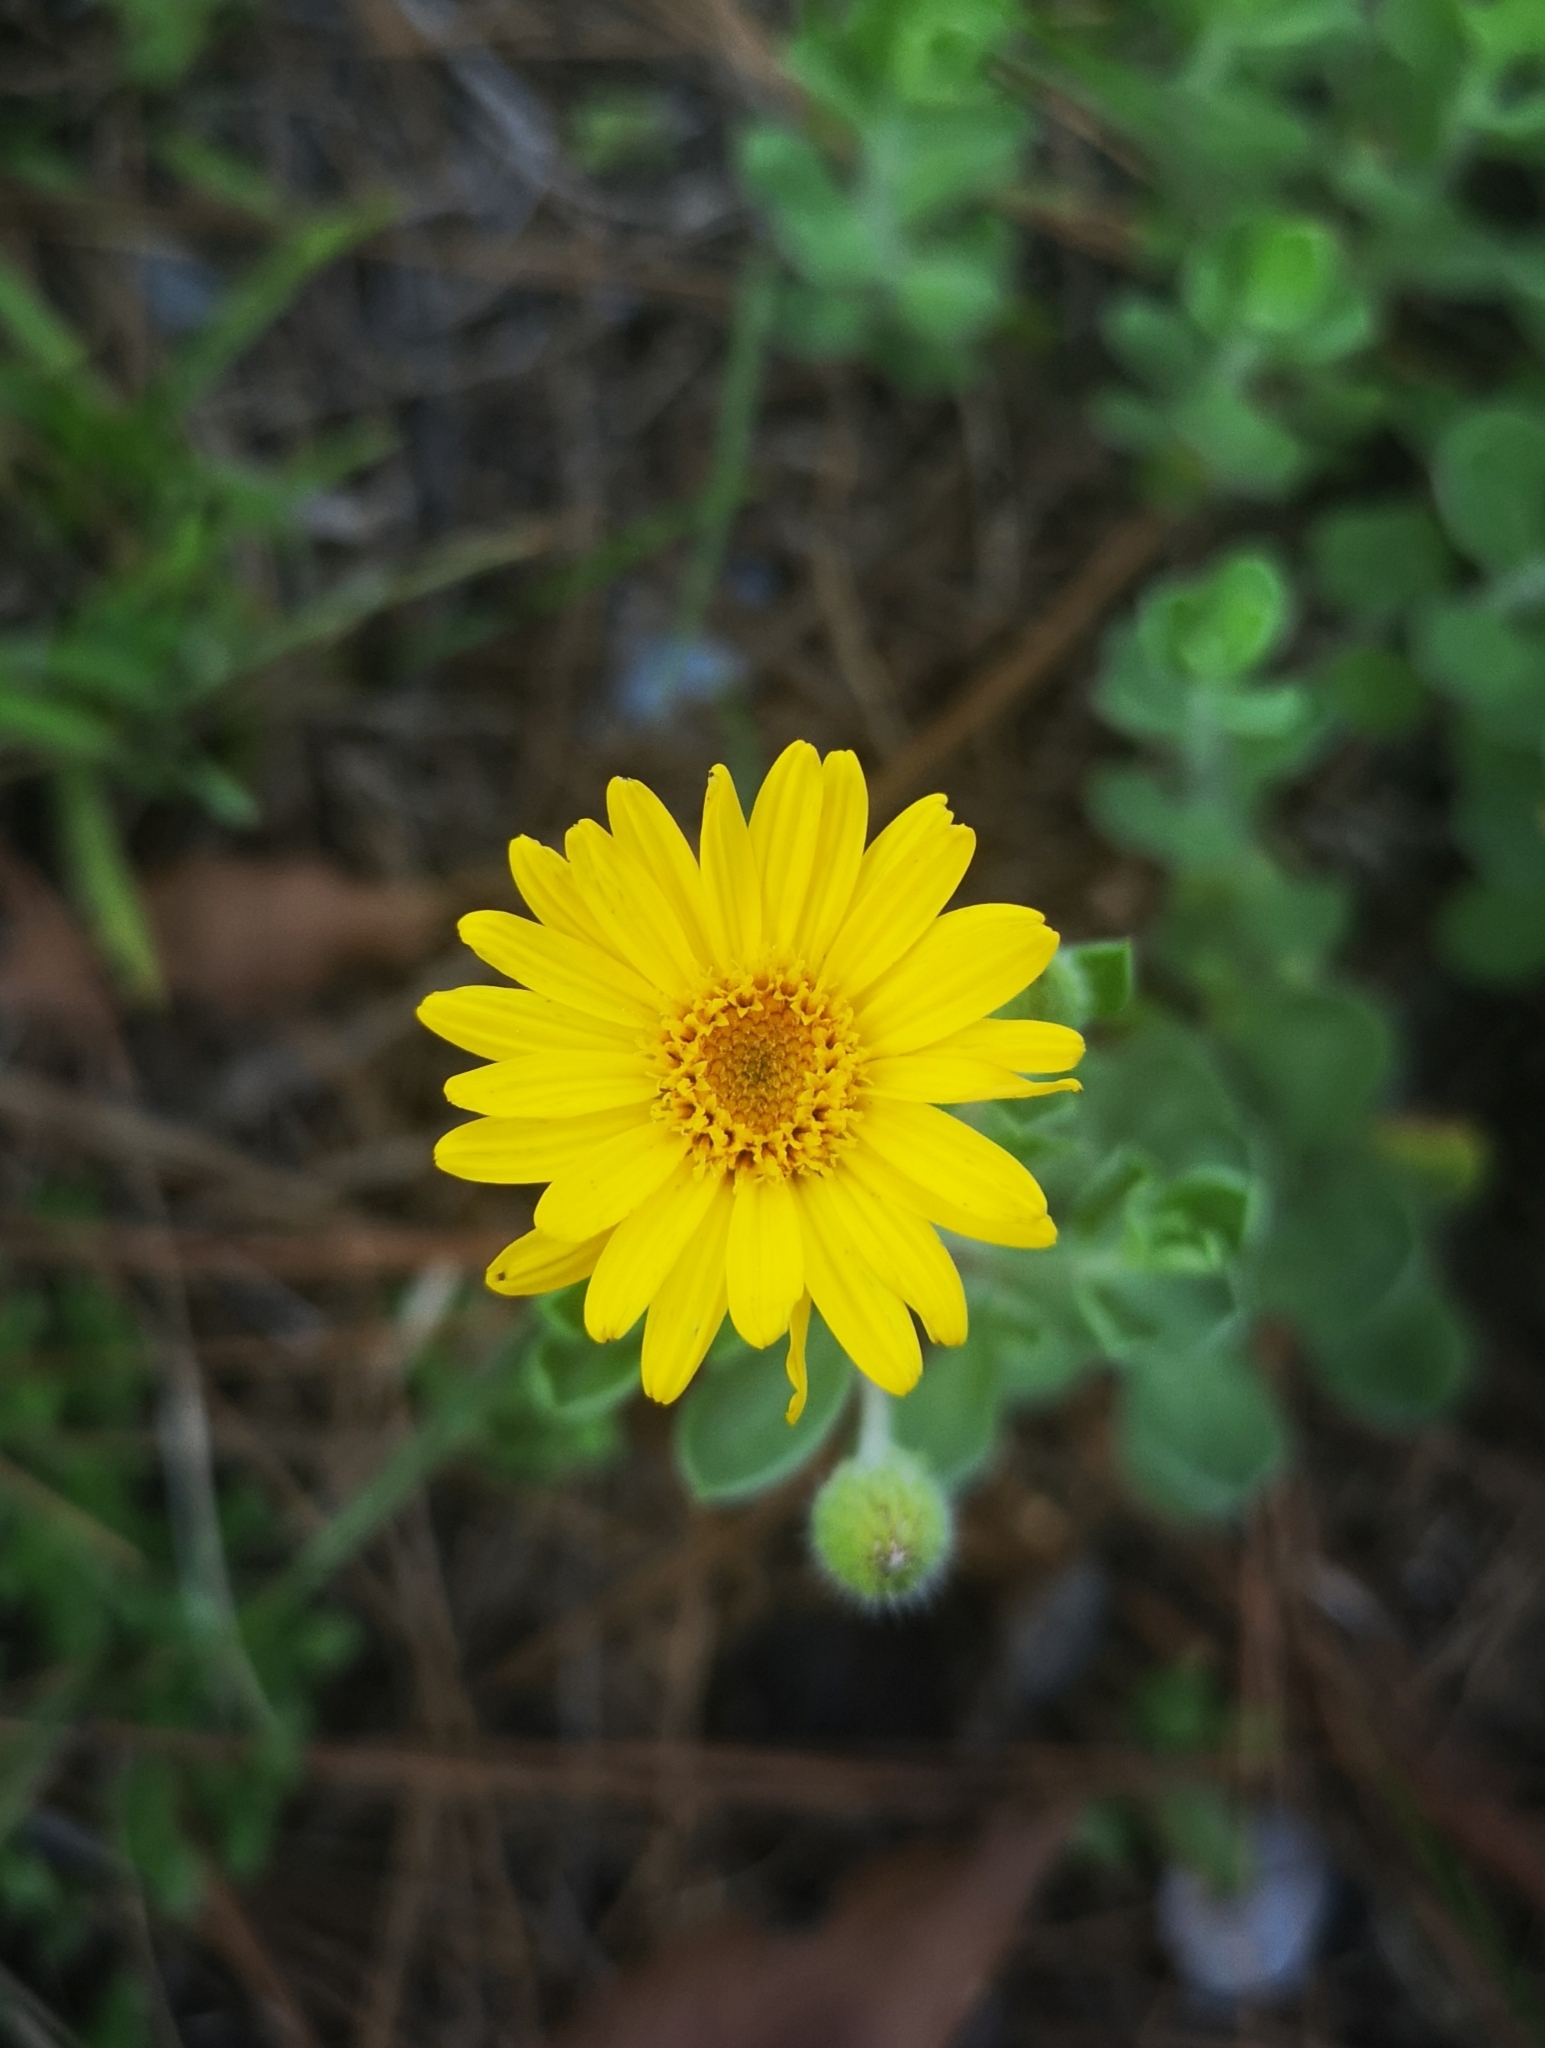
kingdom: Plantae
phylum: Tracheophyta
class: Magnoliopsida
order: Asterales
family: Asteraceae
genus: Heterotheca
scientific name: Heterotheca mucronata
